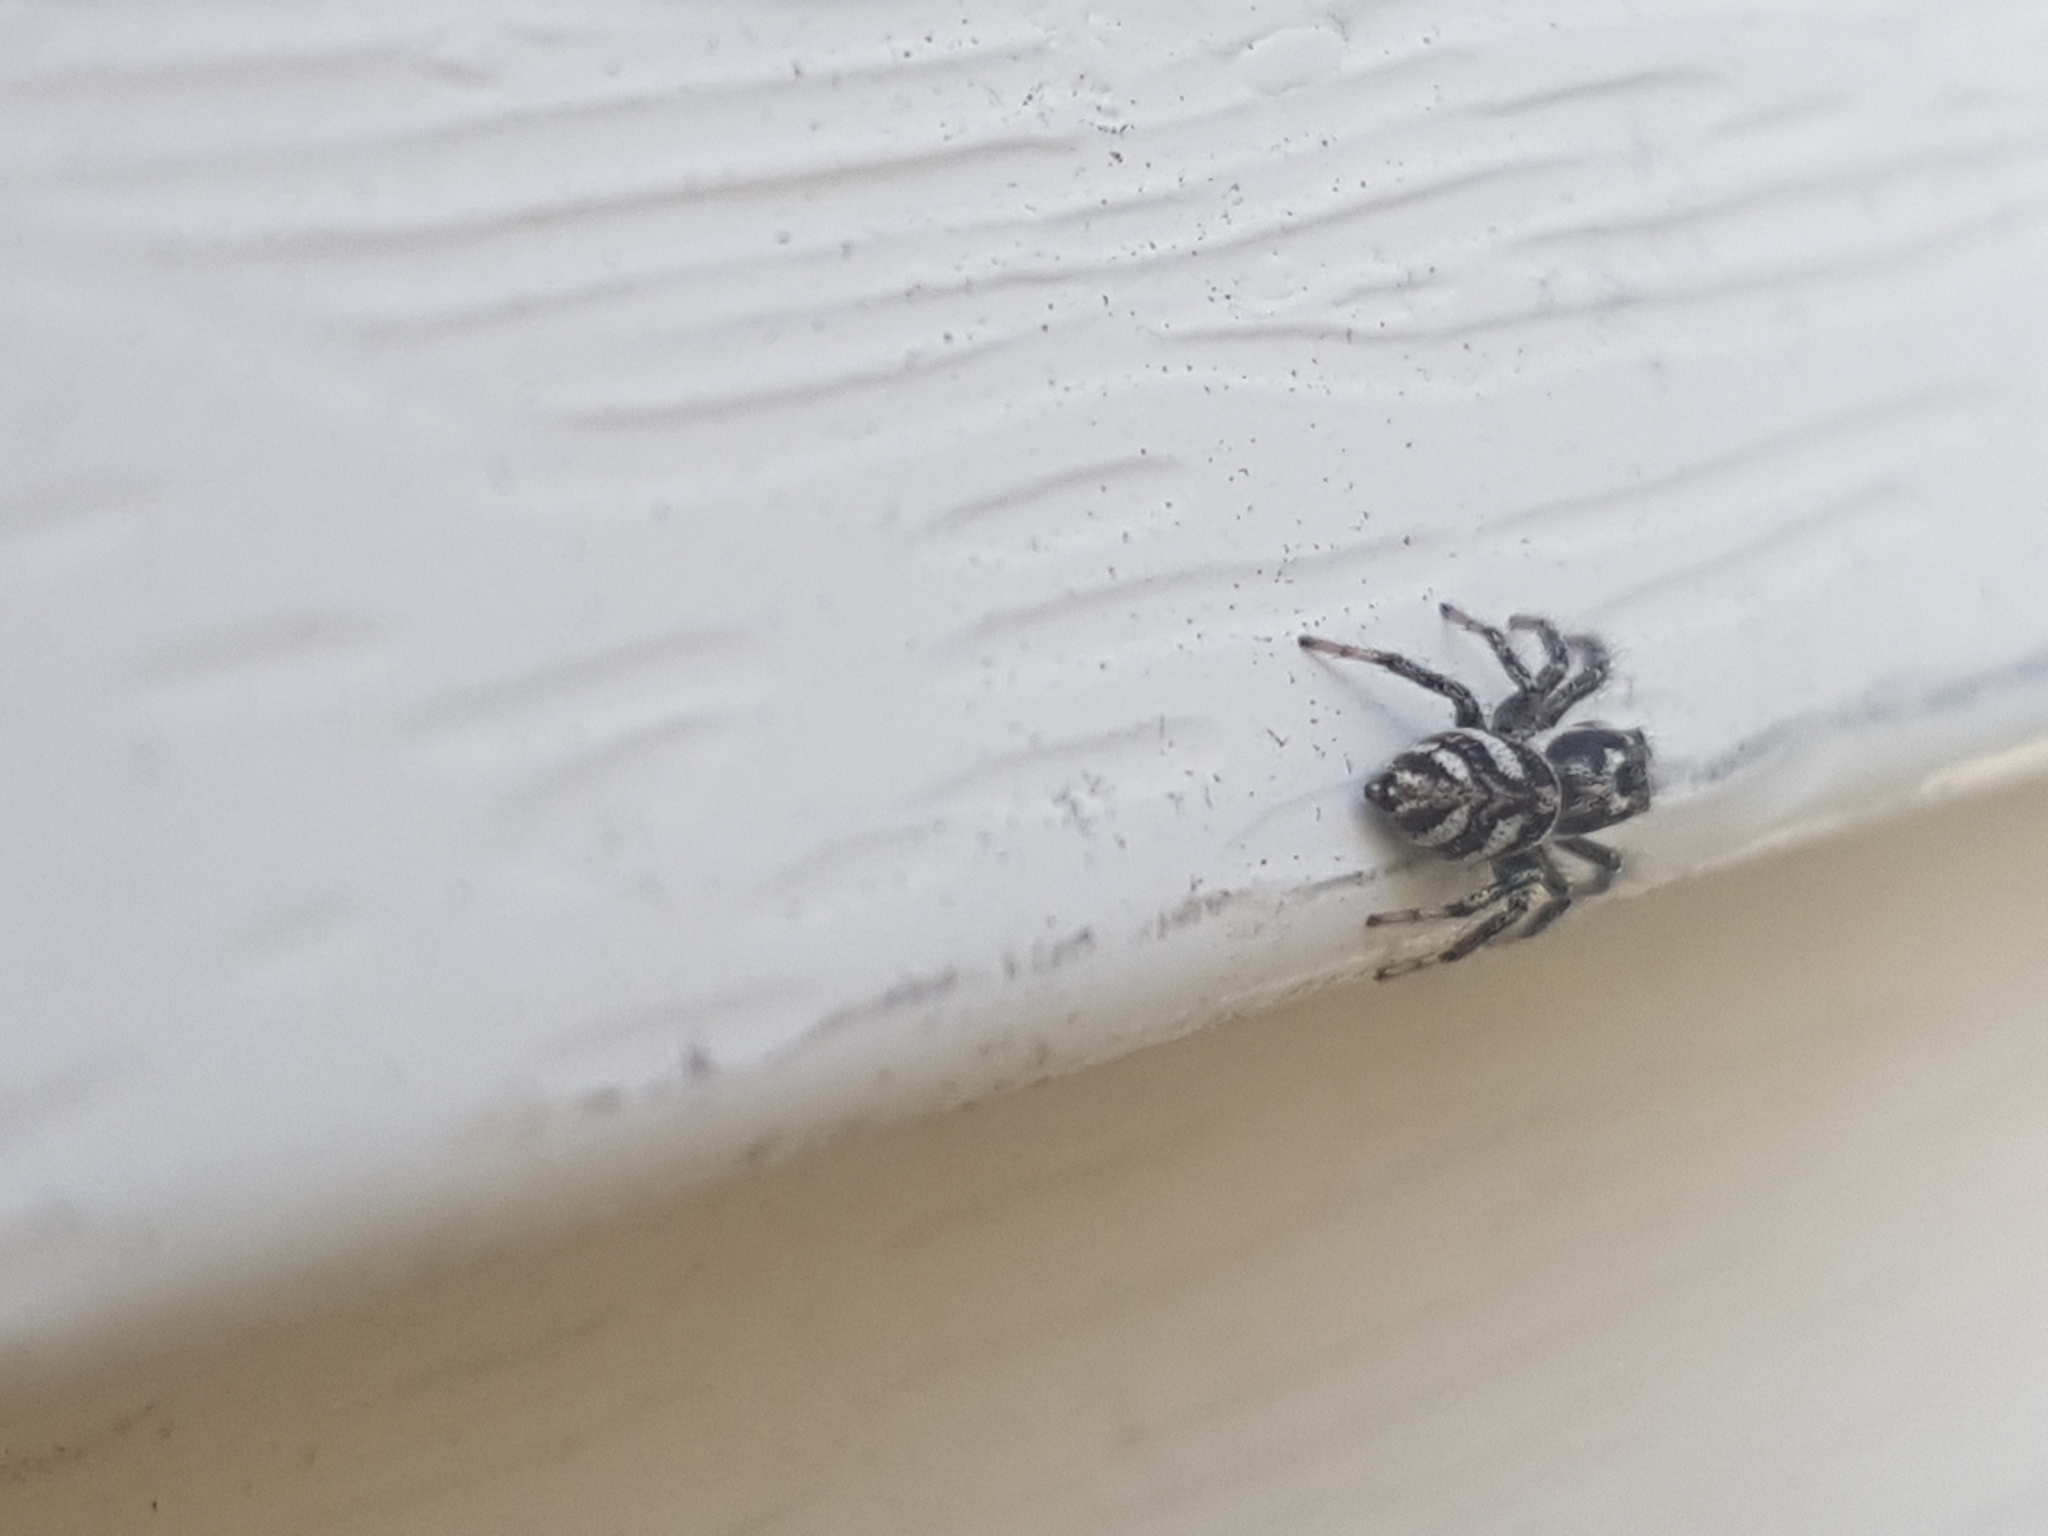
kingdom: Animalia
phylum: Arthropoda
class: Arachnida
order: Araneae
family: Salticidae
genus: Salticus
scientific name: Salticus scenicus
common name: Zebra jumper
